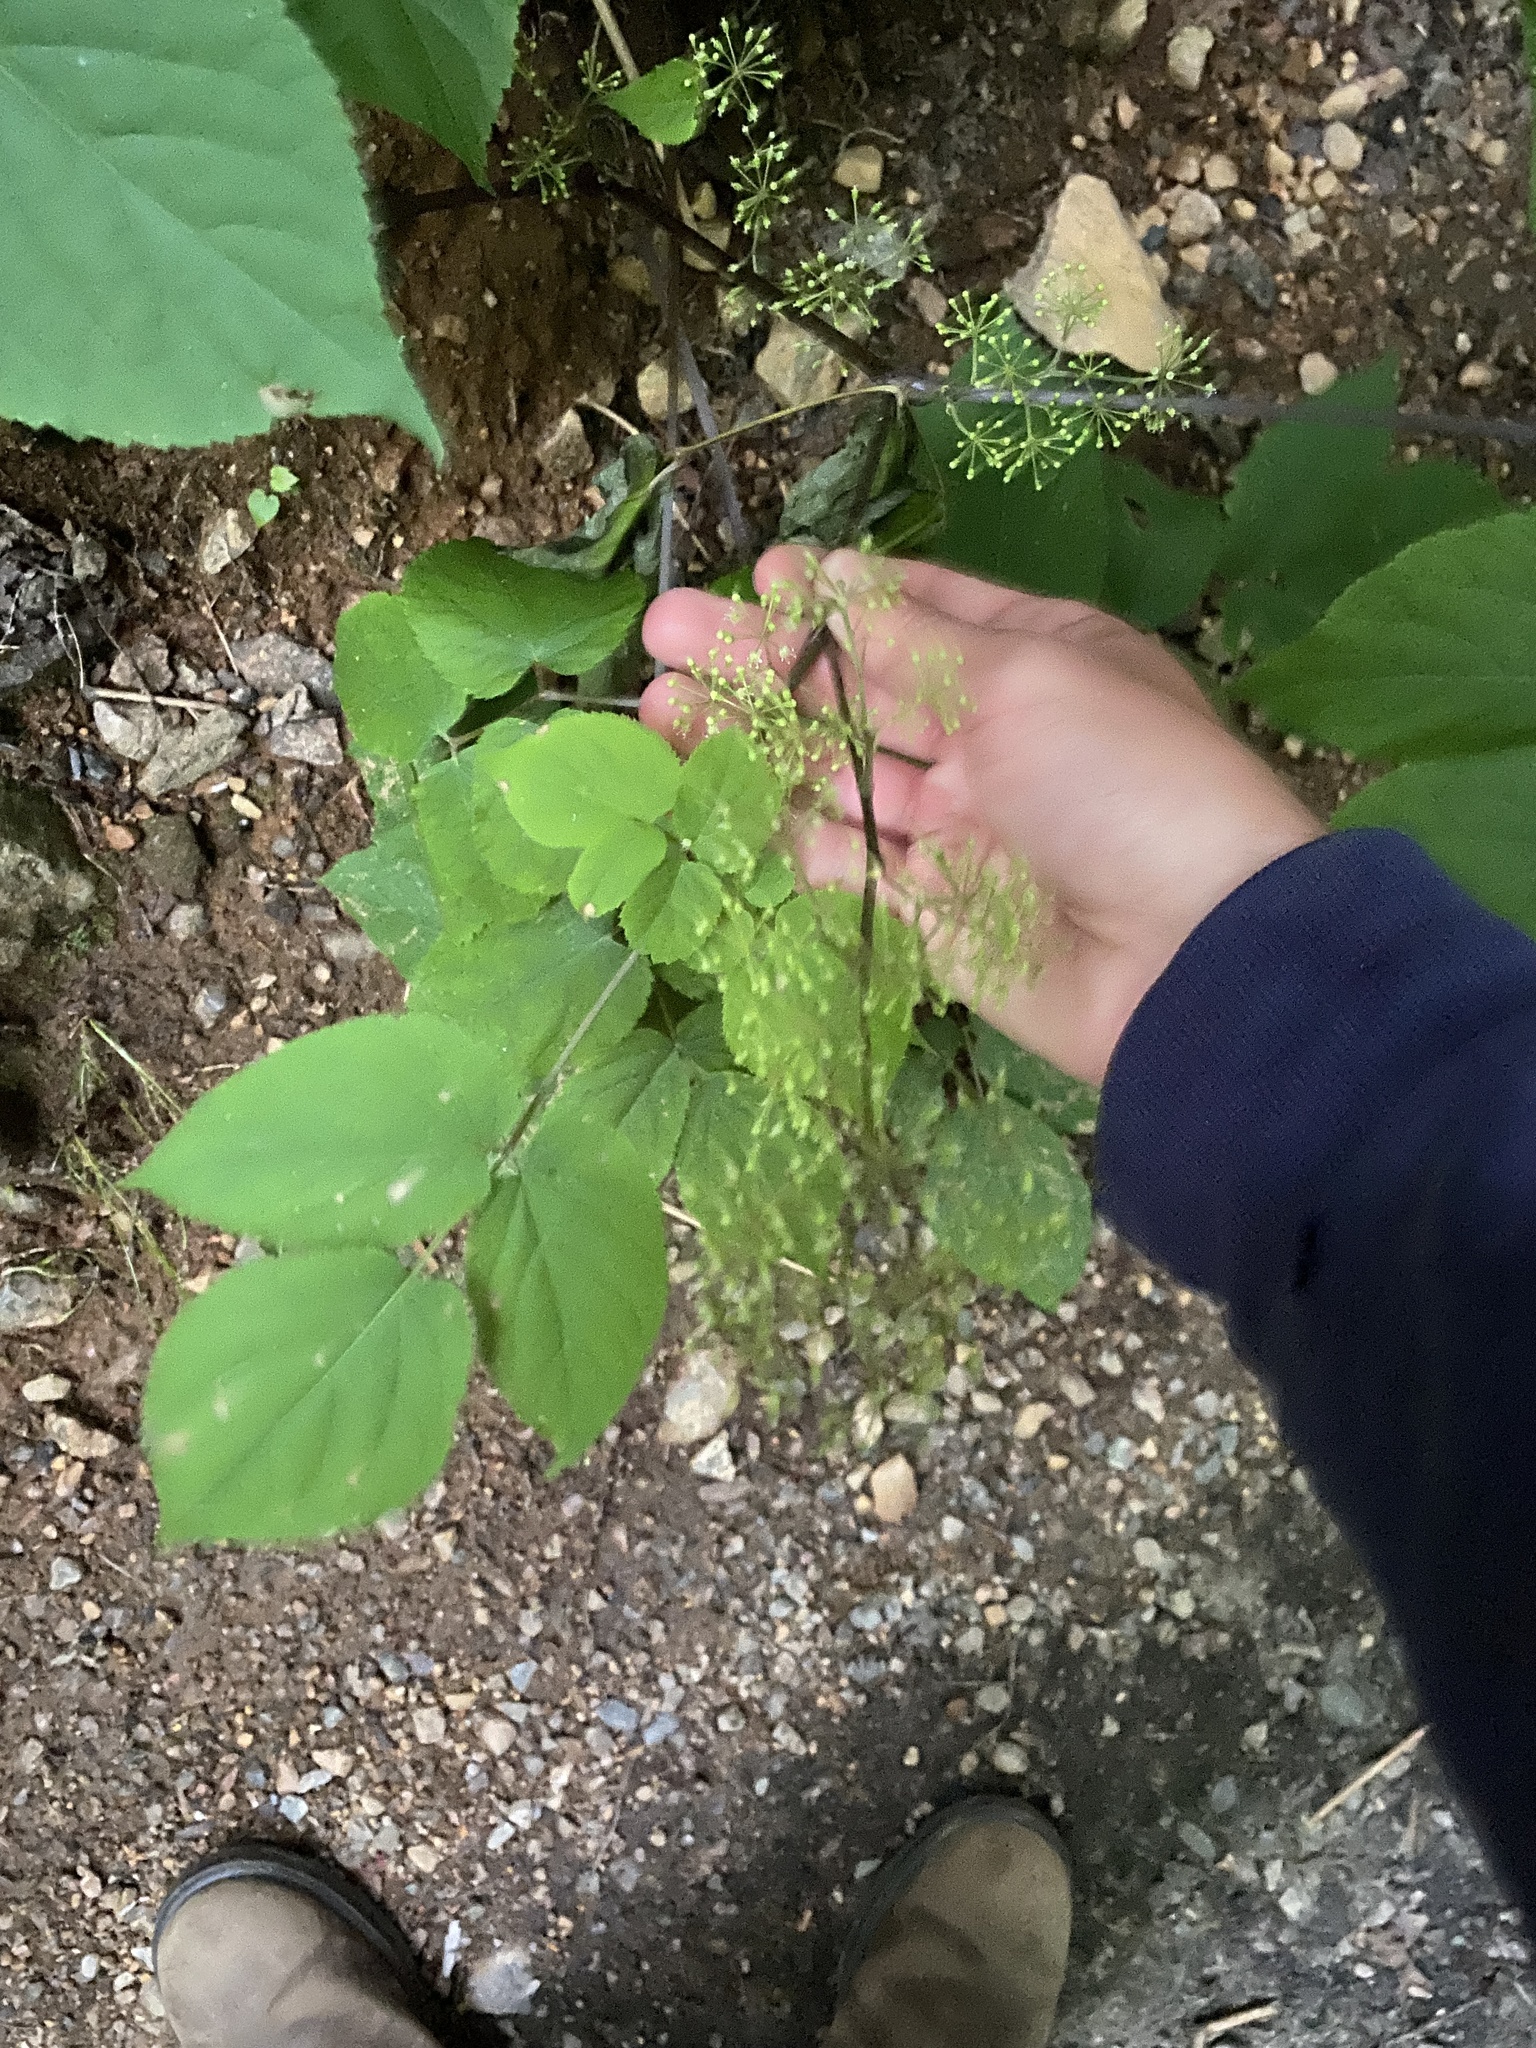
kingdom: Plantae
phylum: Tracheophyta
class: Magnoliopsida
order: Apiales
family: Araliaceae
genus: Aralia
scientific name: Aralia racemosa
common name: American-spikenard
